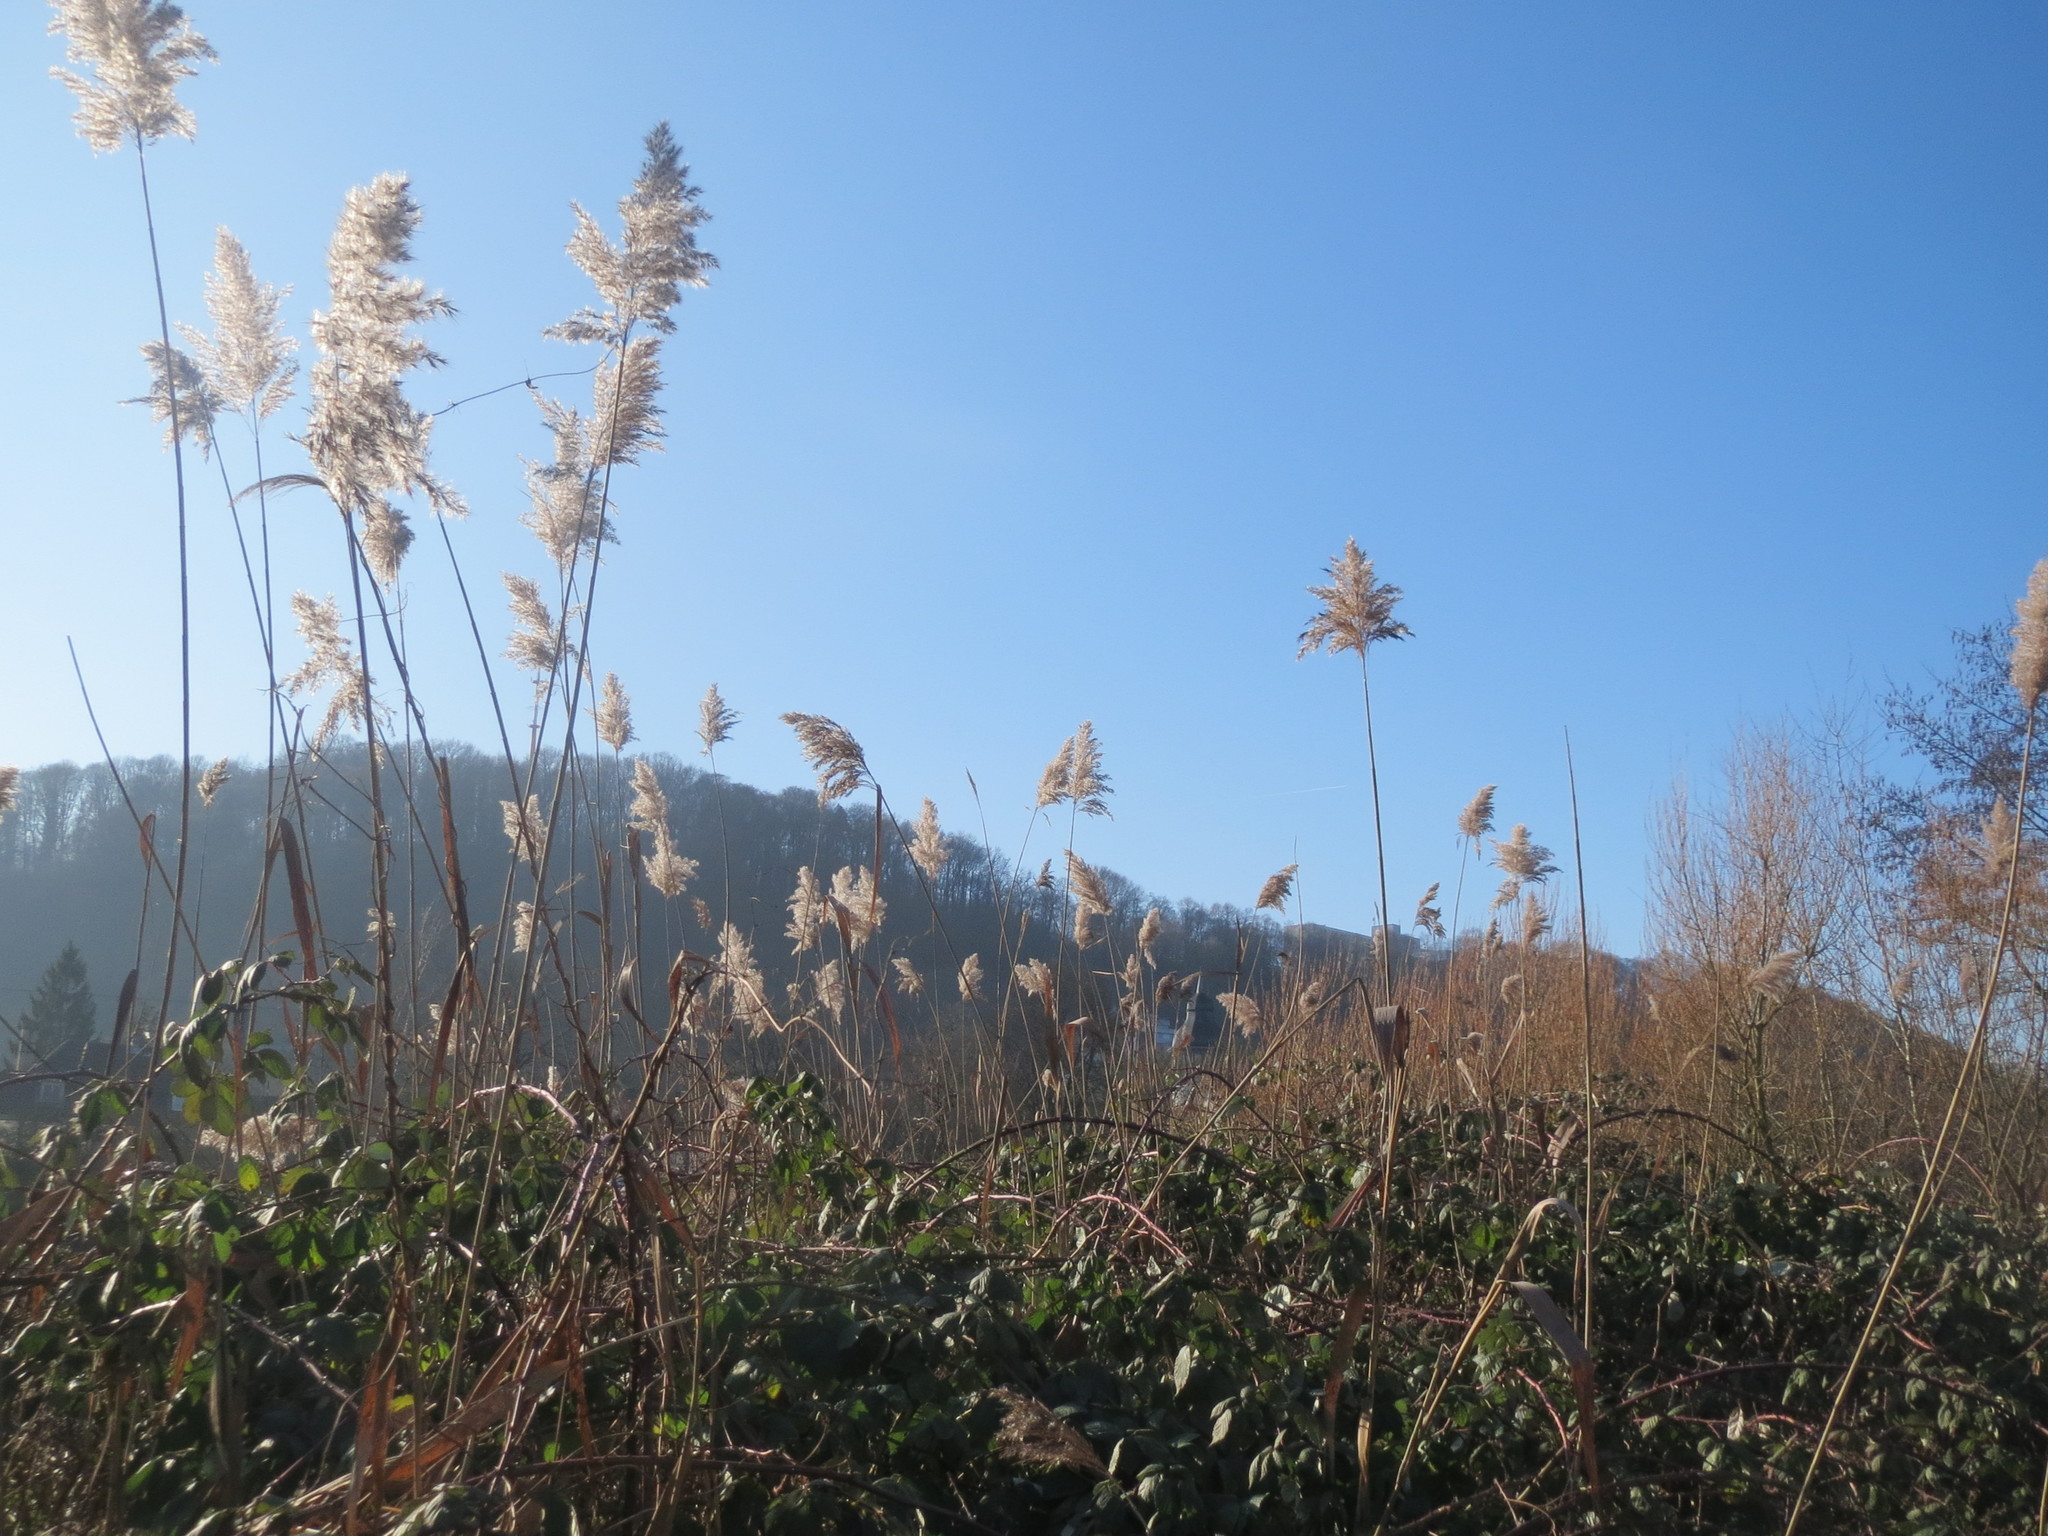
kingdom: Plantae
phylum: Tracheophyta
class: Liliopsida
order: Poales
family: Poaceae
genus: Phragmites
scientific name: Phragmites australis
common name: Common reed
